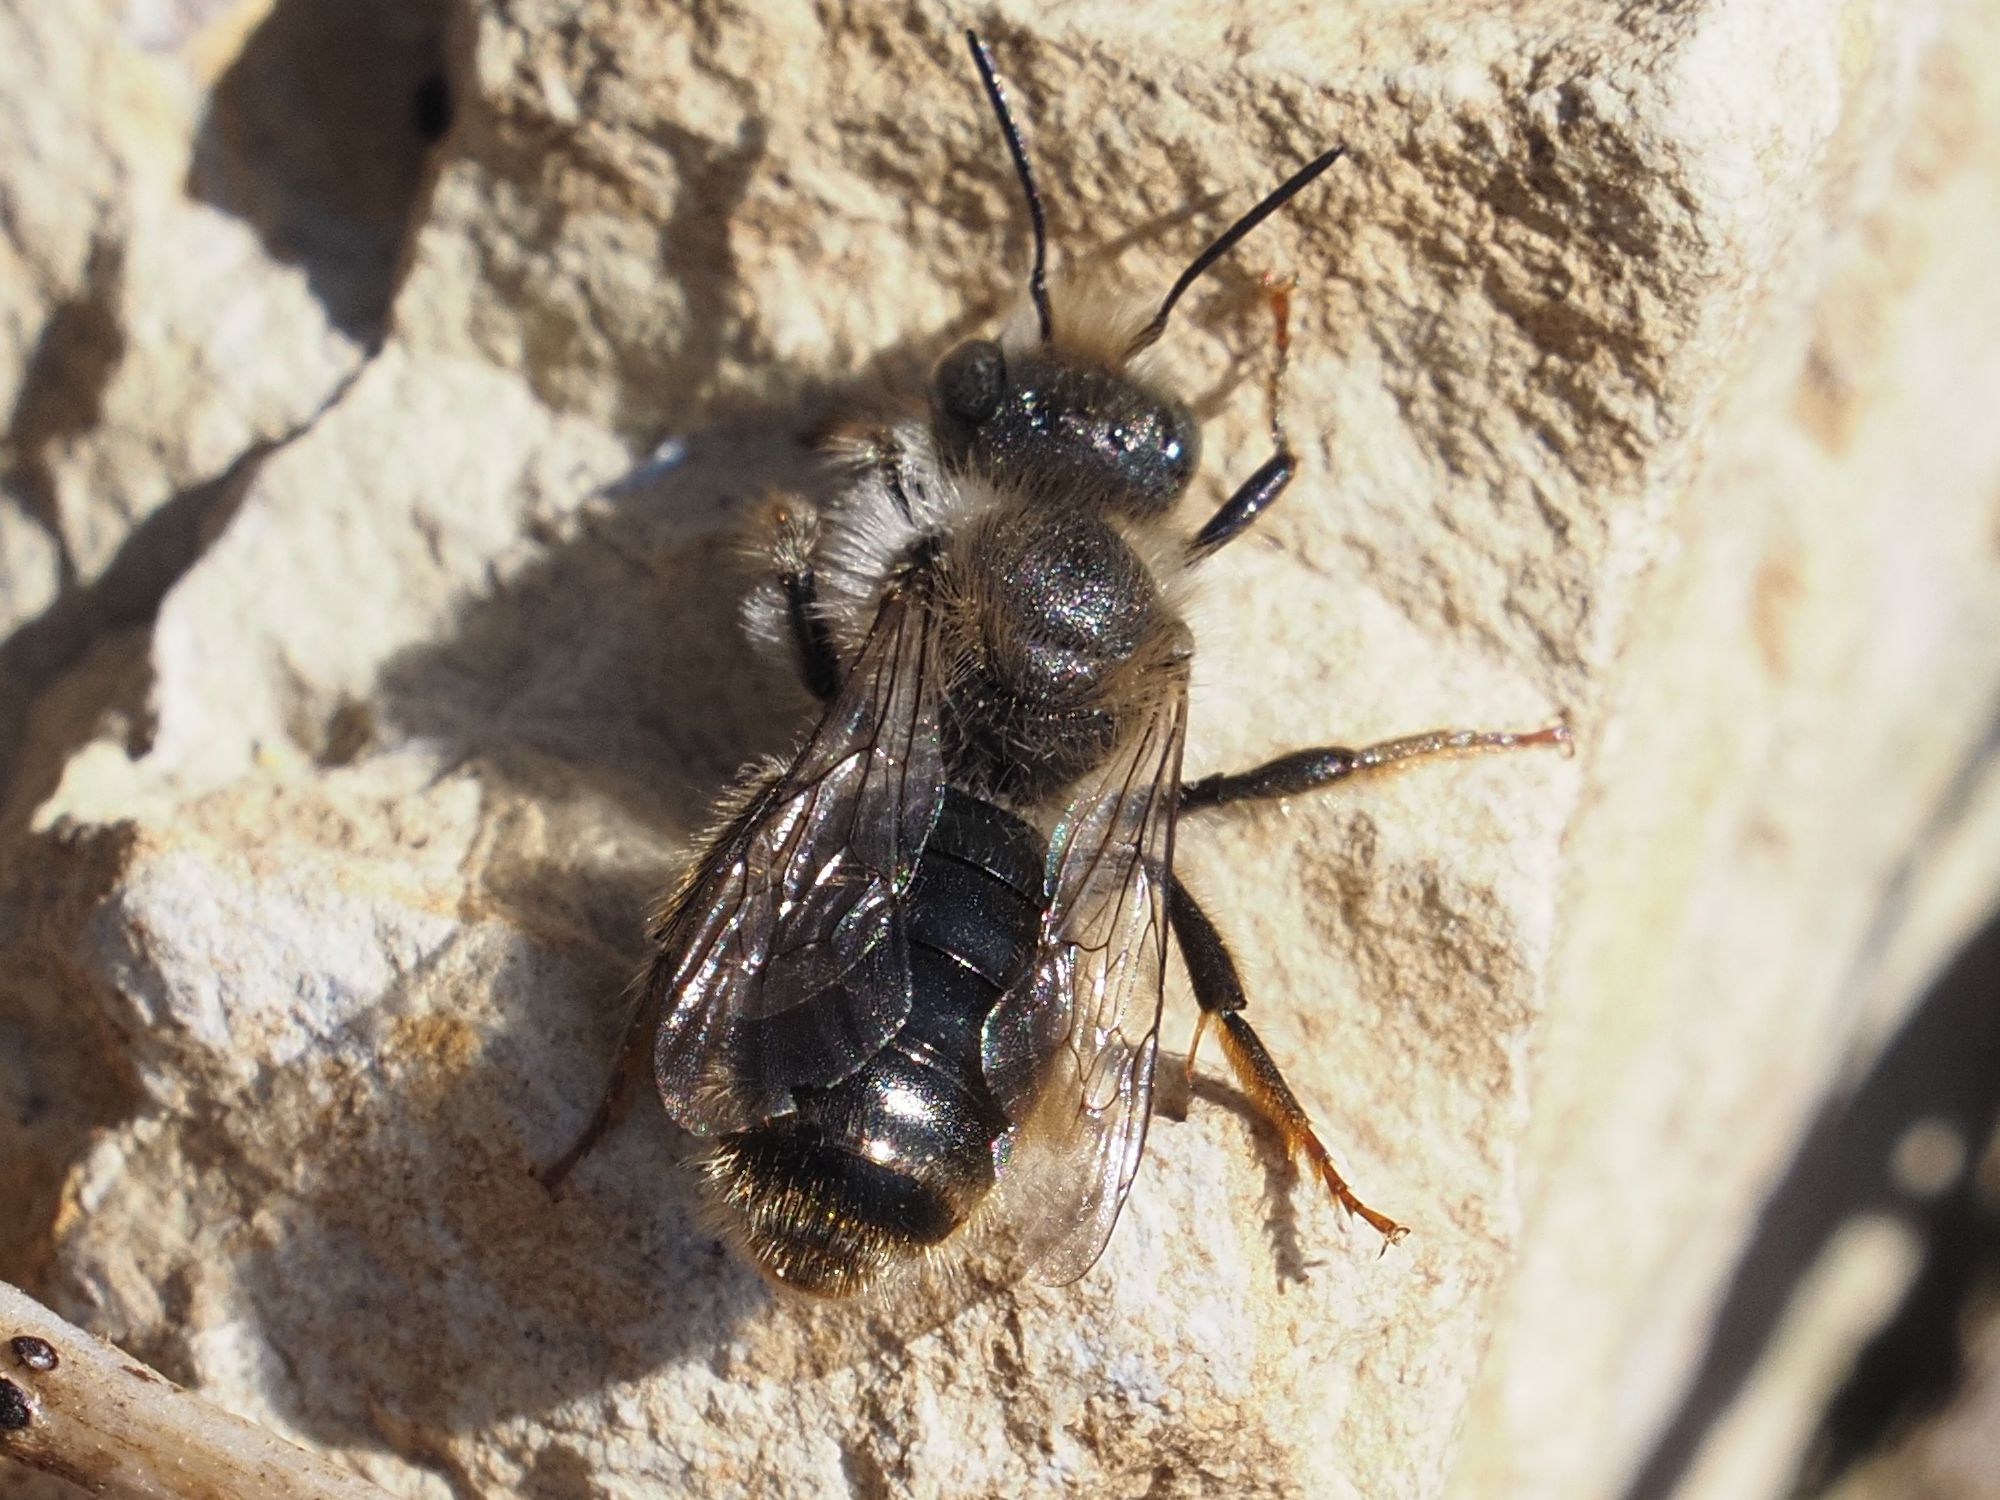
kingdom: Animalia
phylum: Arthropoda
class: Insecta
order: Hymenoptera
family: Megachilidae
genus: Osmia
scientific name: Osmia bicolor
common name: Red-tailed mason bee
